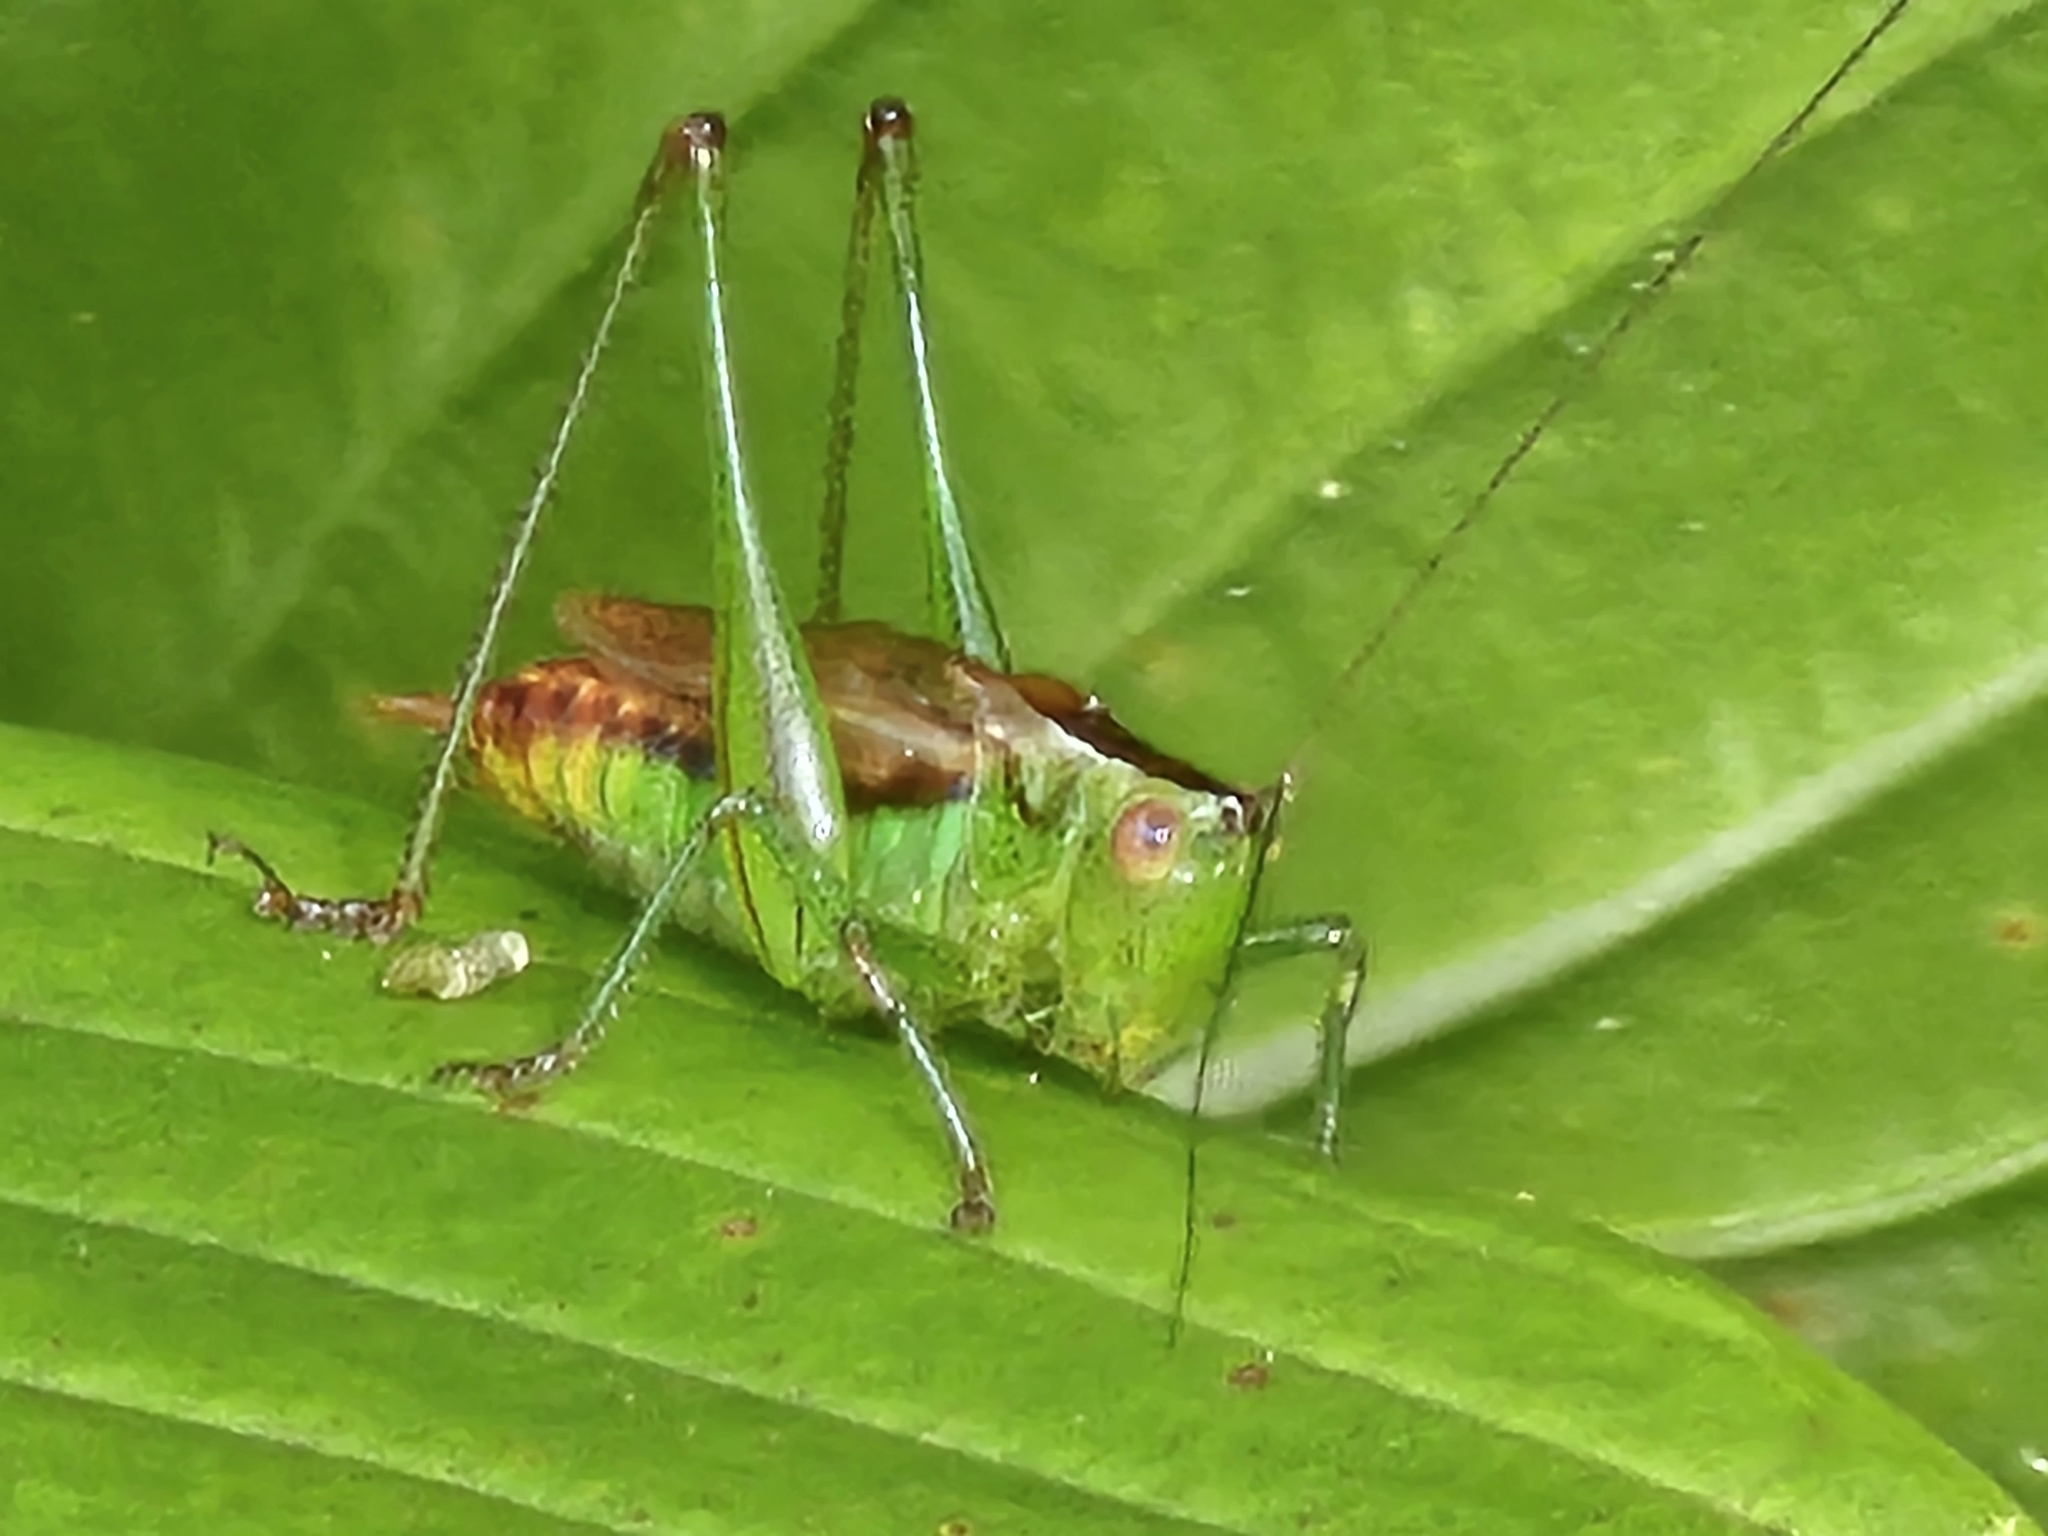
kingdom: Animalia
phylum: Arthropoda
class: Insecta
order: Orthoptera
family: Tettigoniidae
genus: Conocephalus
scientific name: Conocephalus brevipennis
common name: Short-winged meadow katydid
